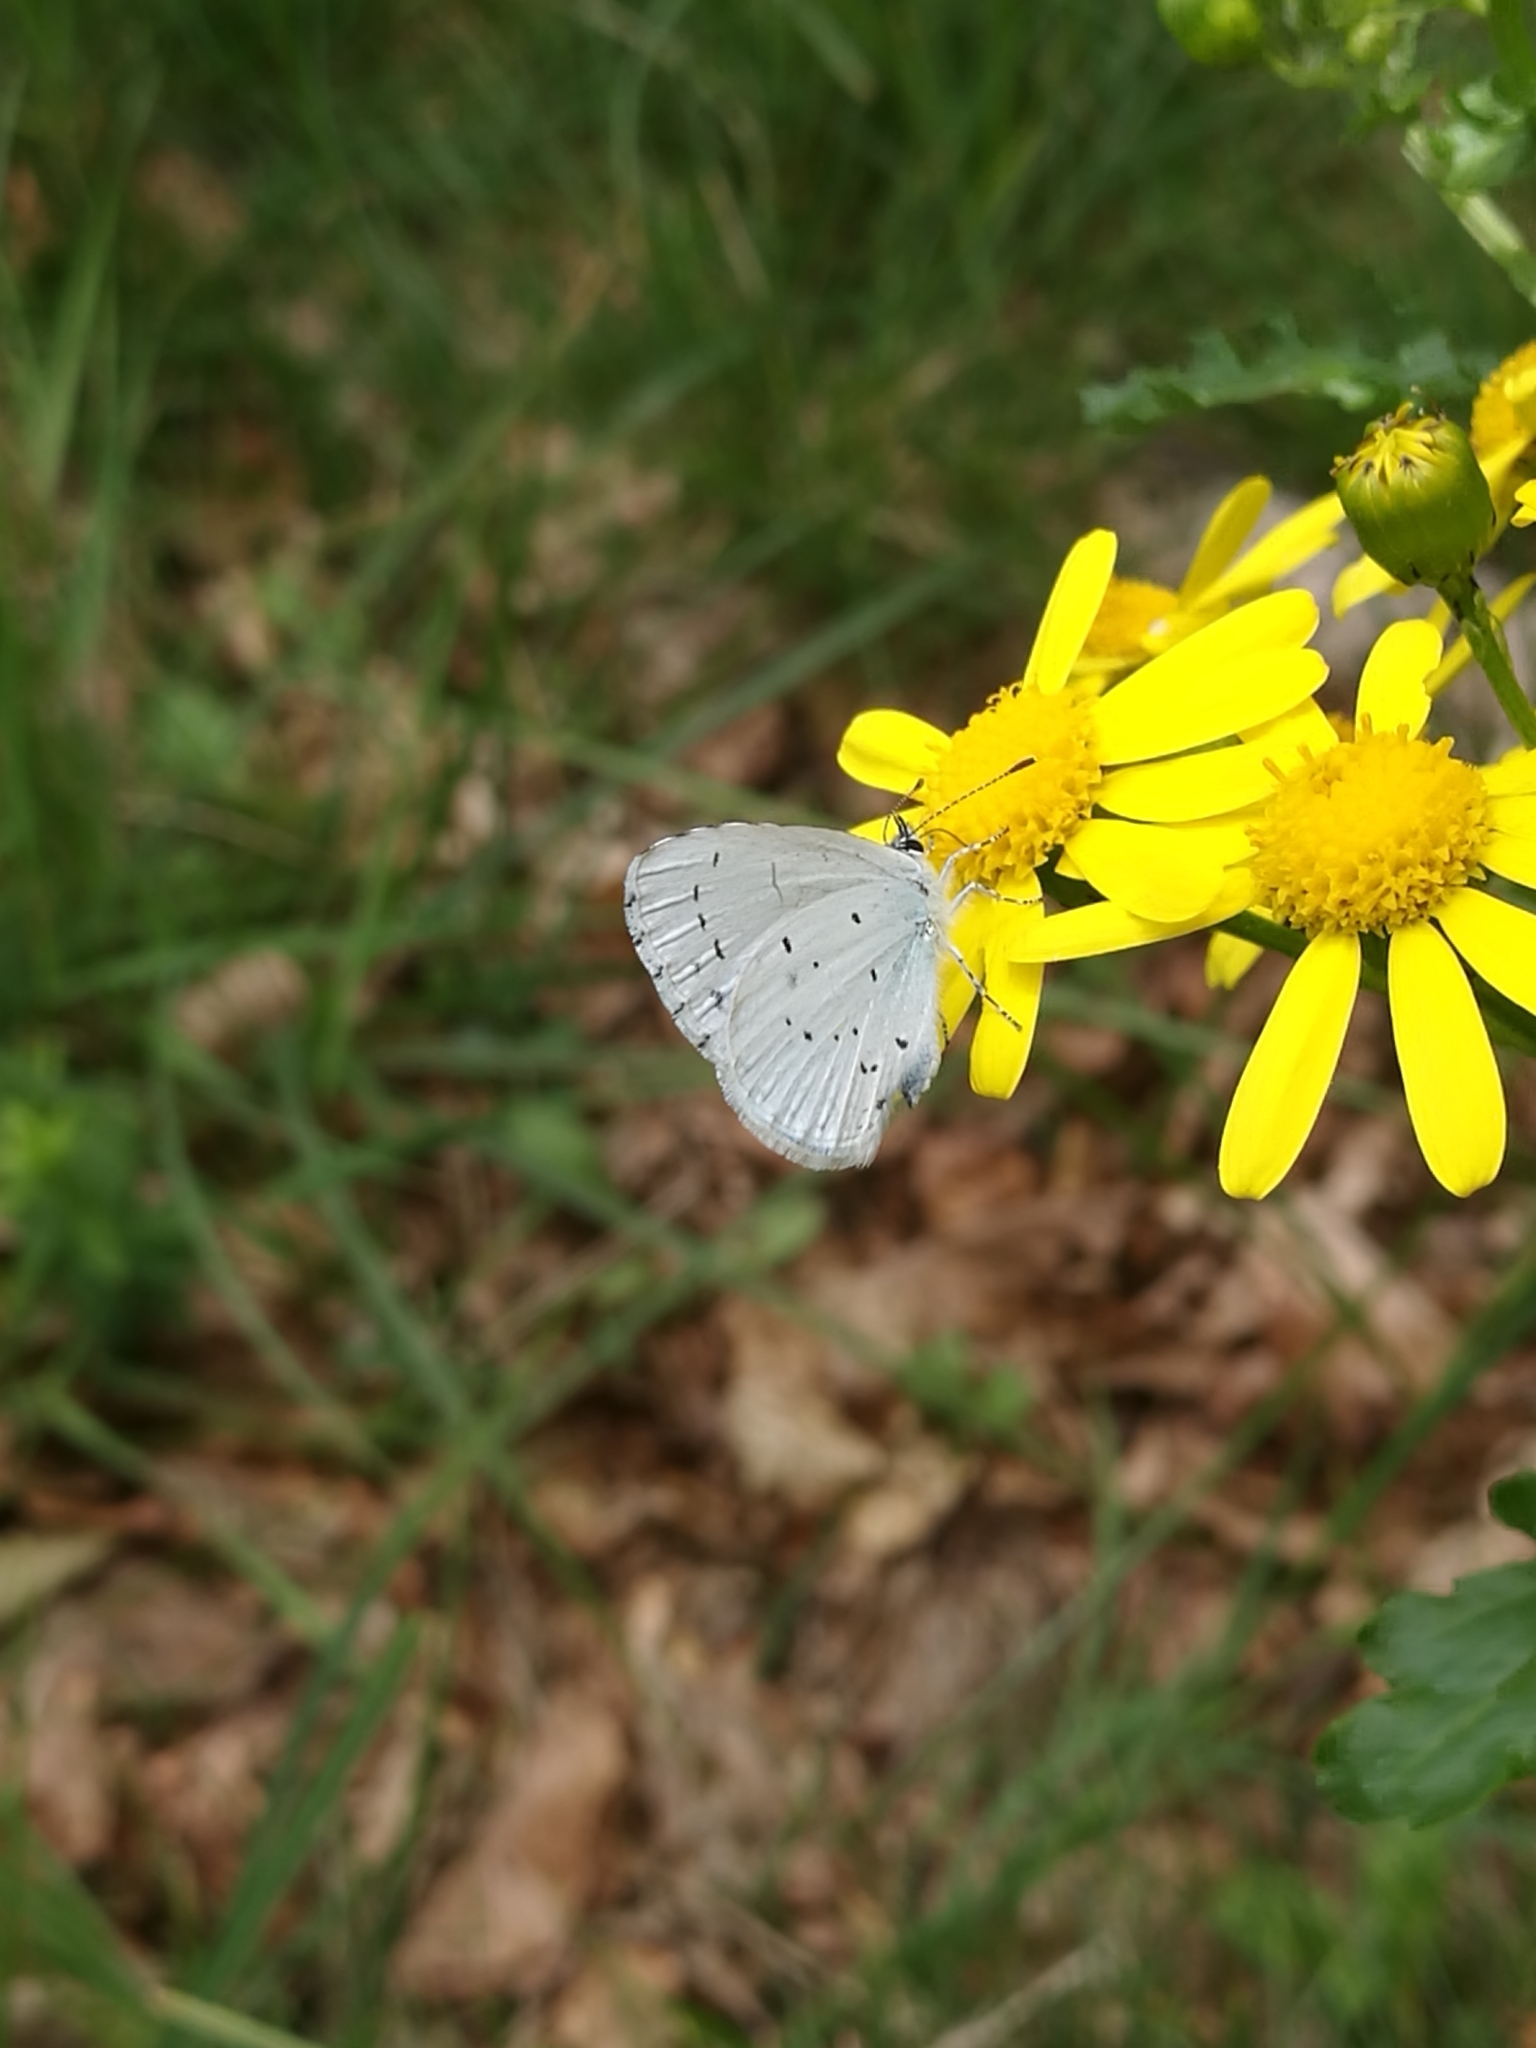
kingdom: Animalia
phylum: Arthropoda
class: Insecta
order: Lepidoptera
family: Lycaenidae
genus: Celastrina
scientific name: Celastrina argiolus
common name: Holly blue
